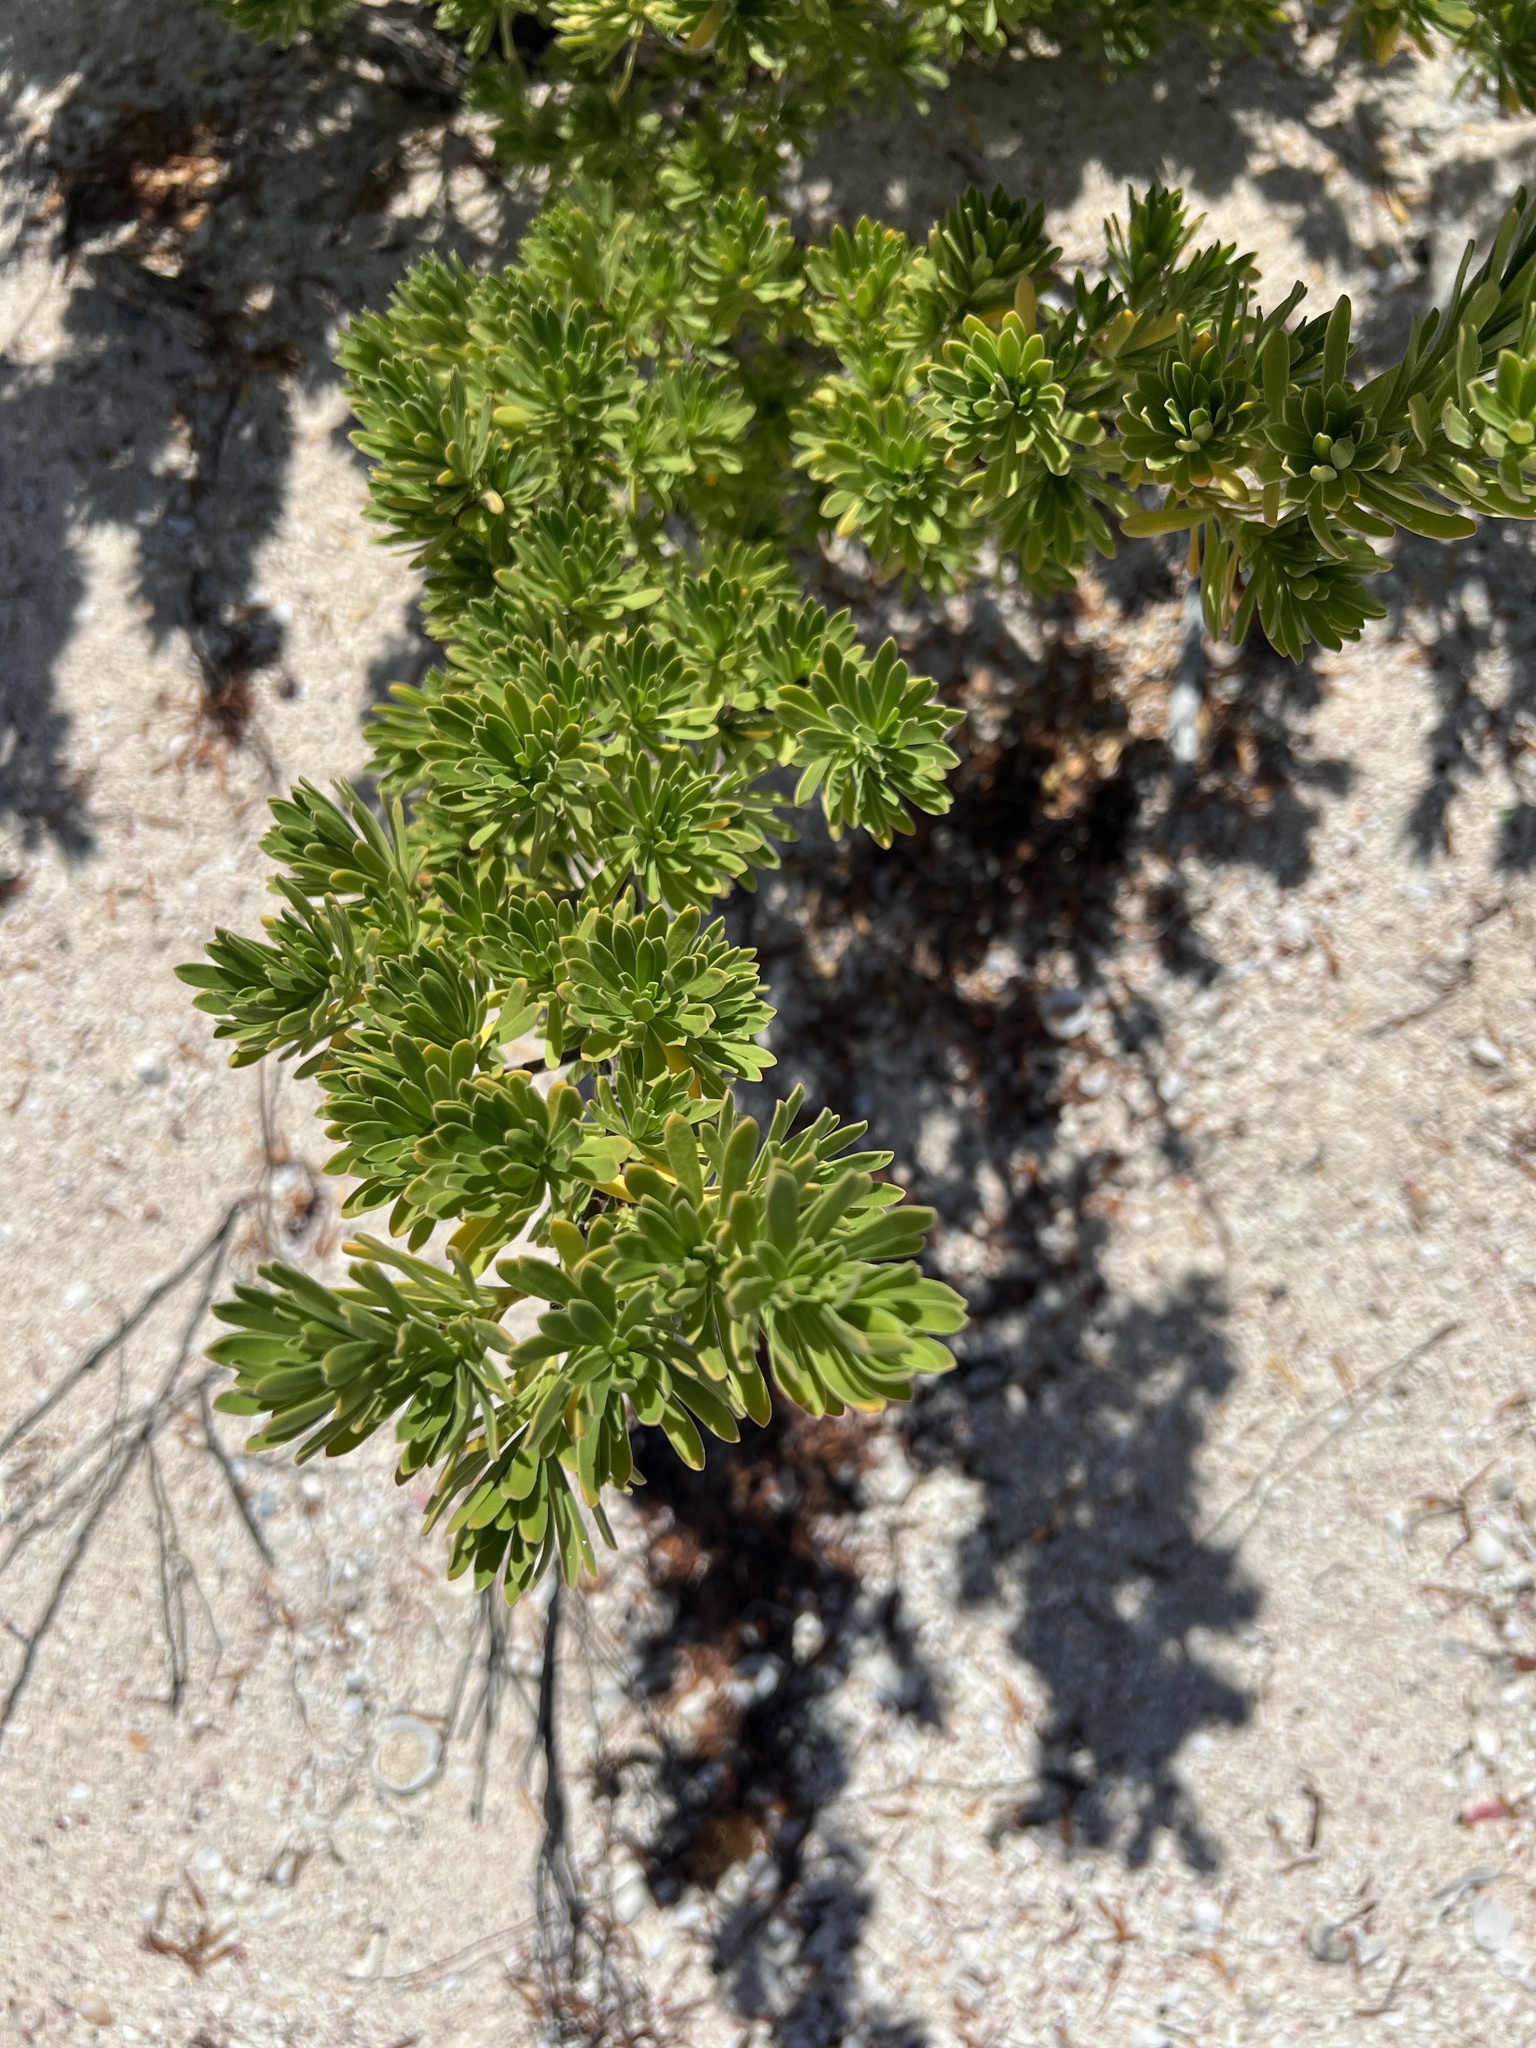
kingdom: Plantae
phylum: Tracheophyta
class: Magnoliopsida
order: Fabales
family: Surianaceae
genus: Suriana
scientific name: Suriana maritima
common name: Bay-cedar
